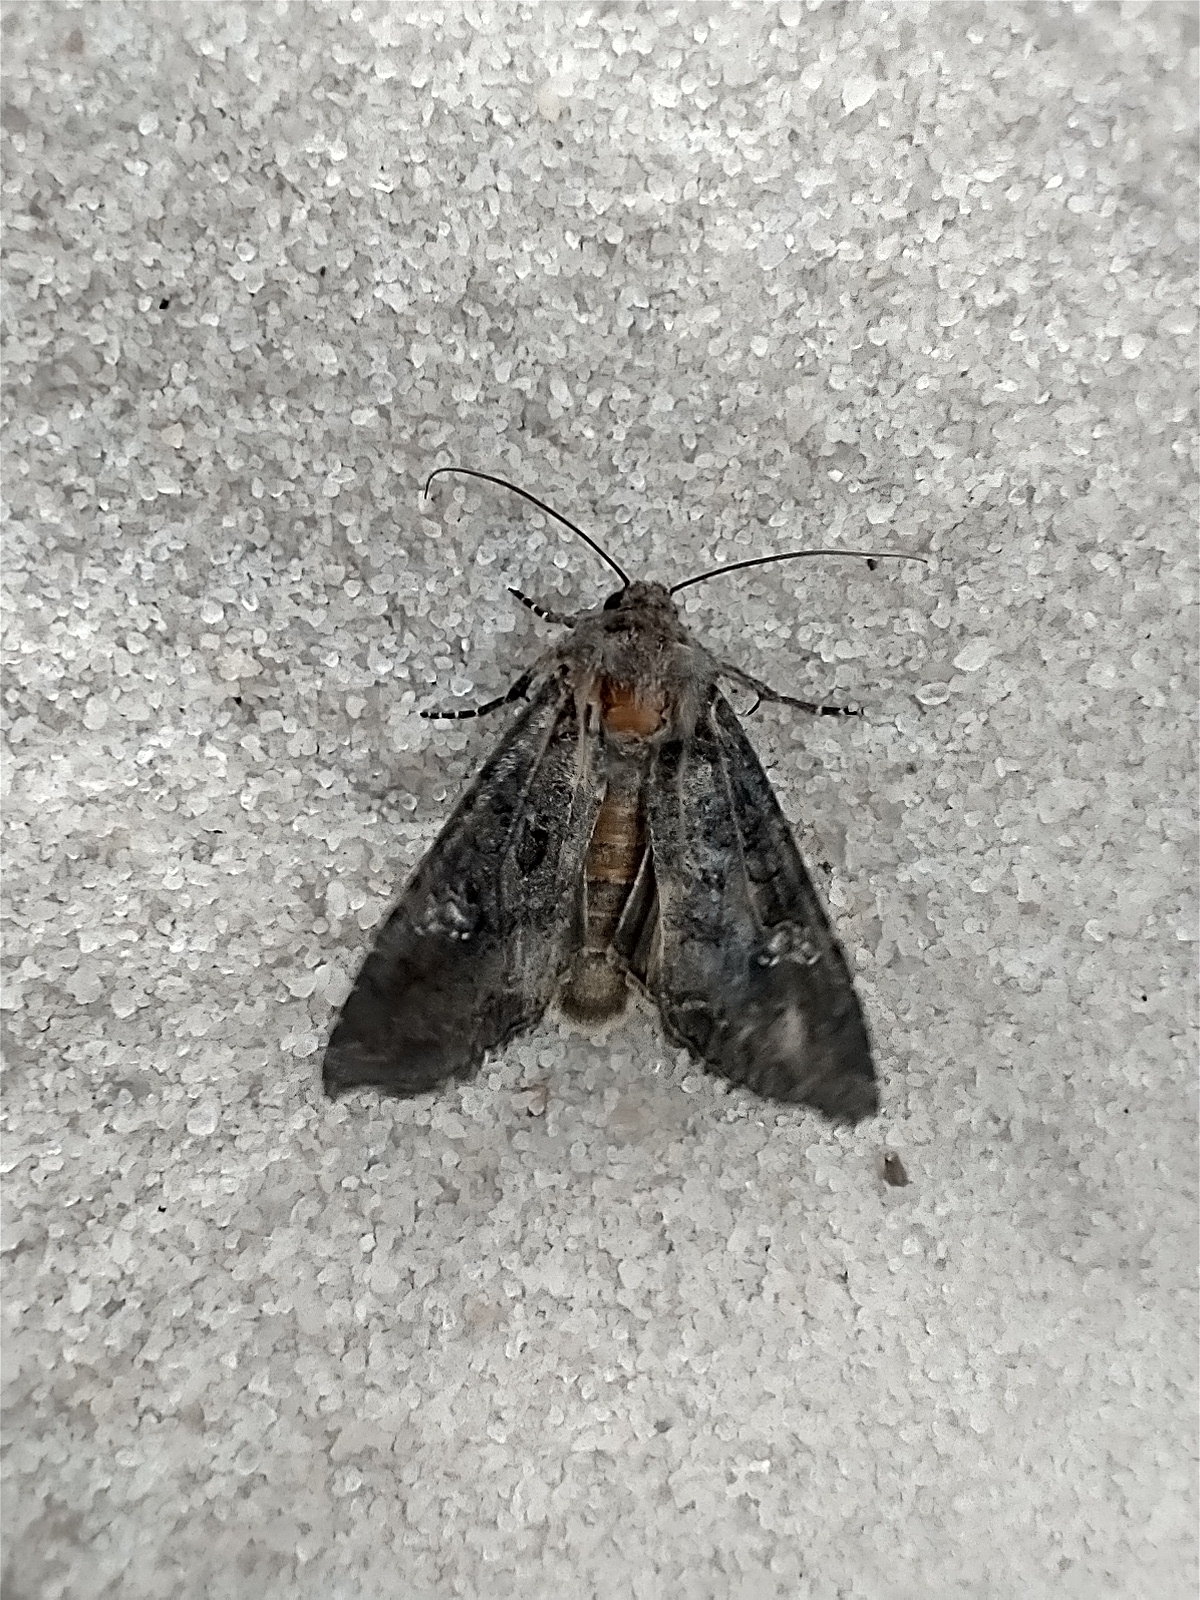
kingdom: Animalia
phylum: Arthropoda
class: Insecta
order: Lepidoptera
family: Noctuidae
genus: Mamestra
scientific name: Mamestra brassicae
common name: Cabbage moth
